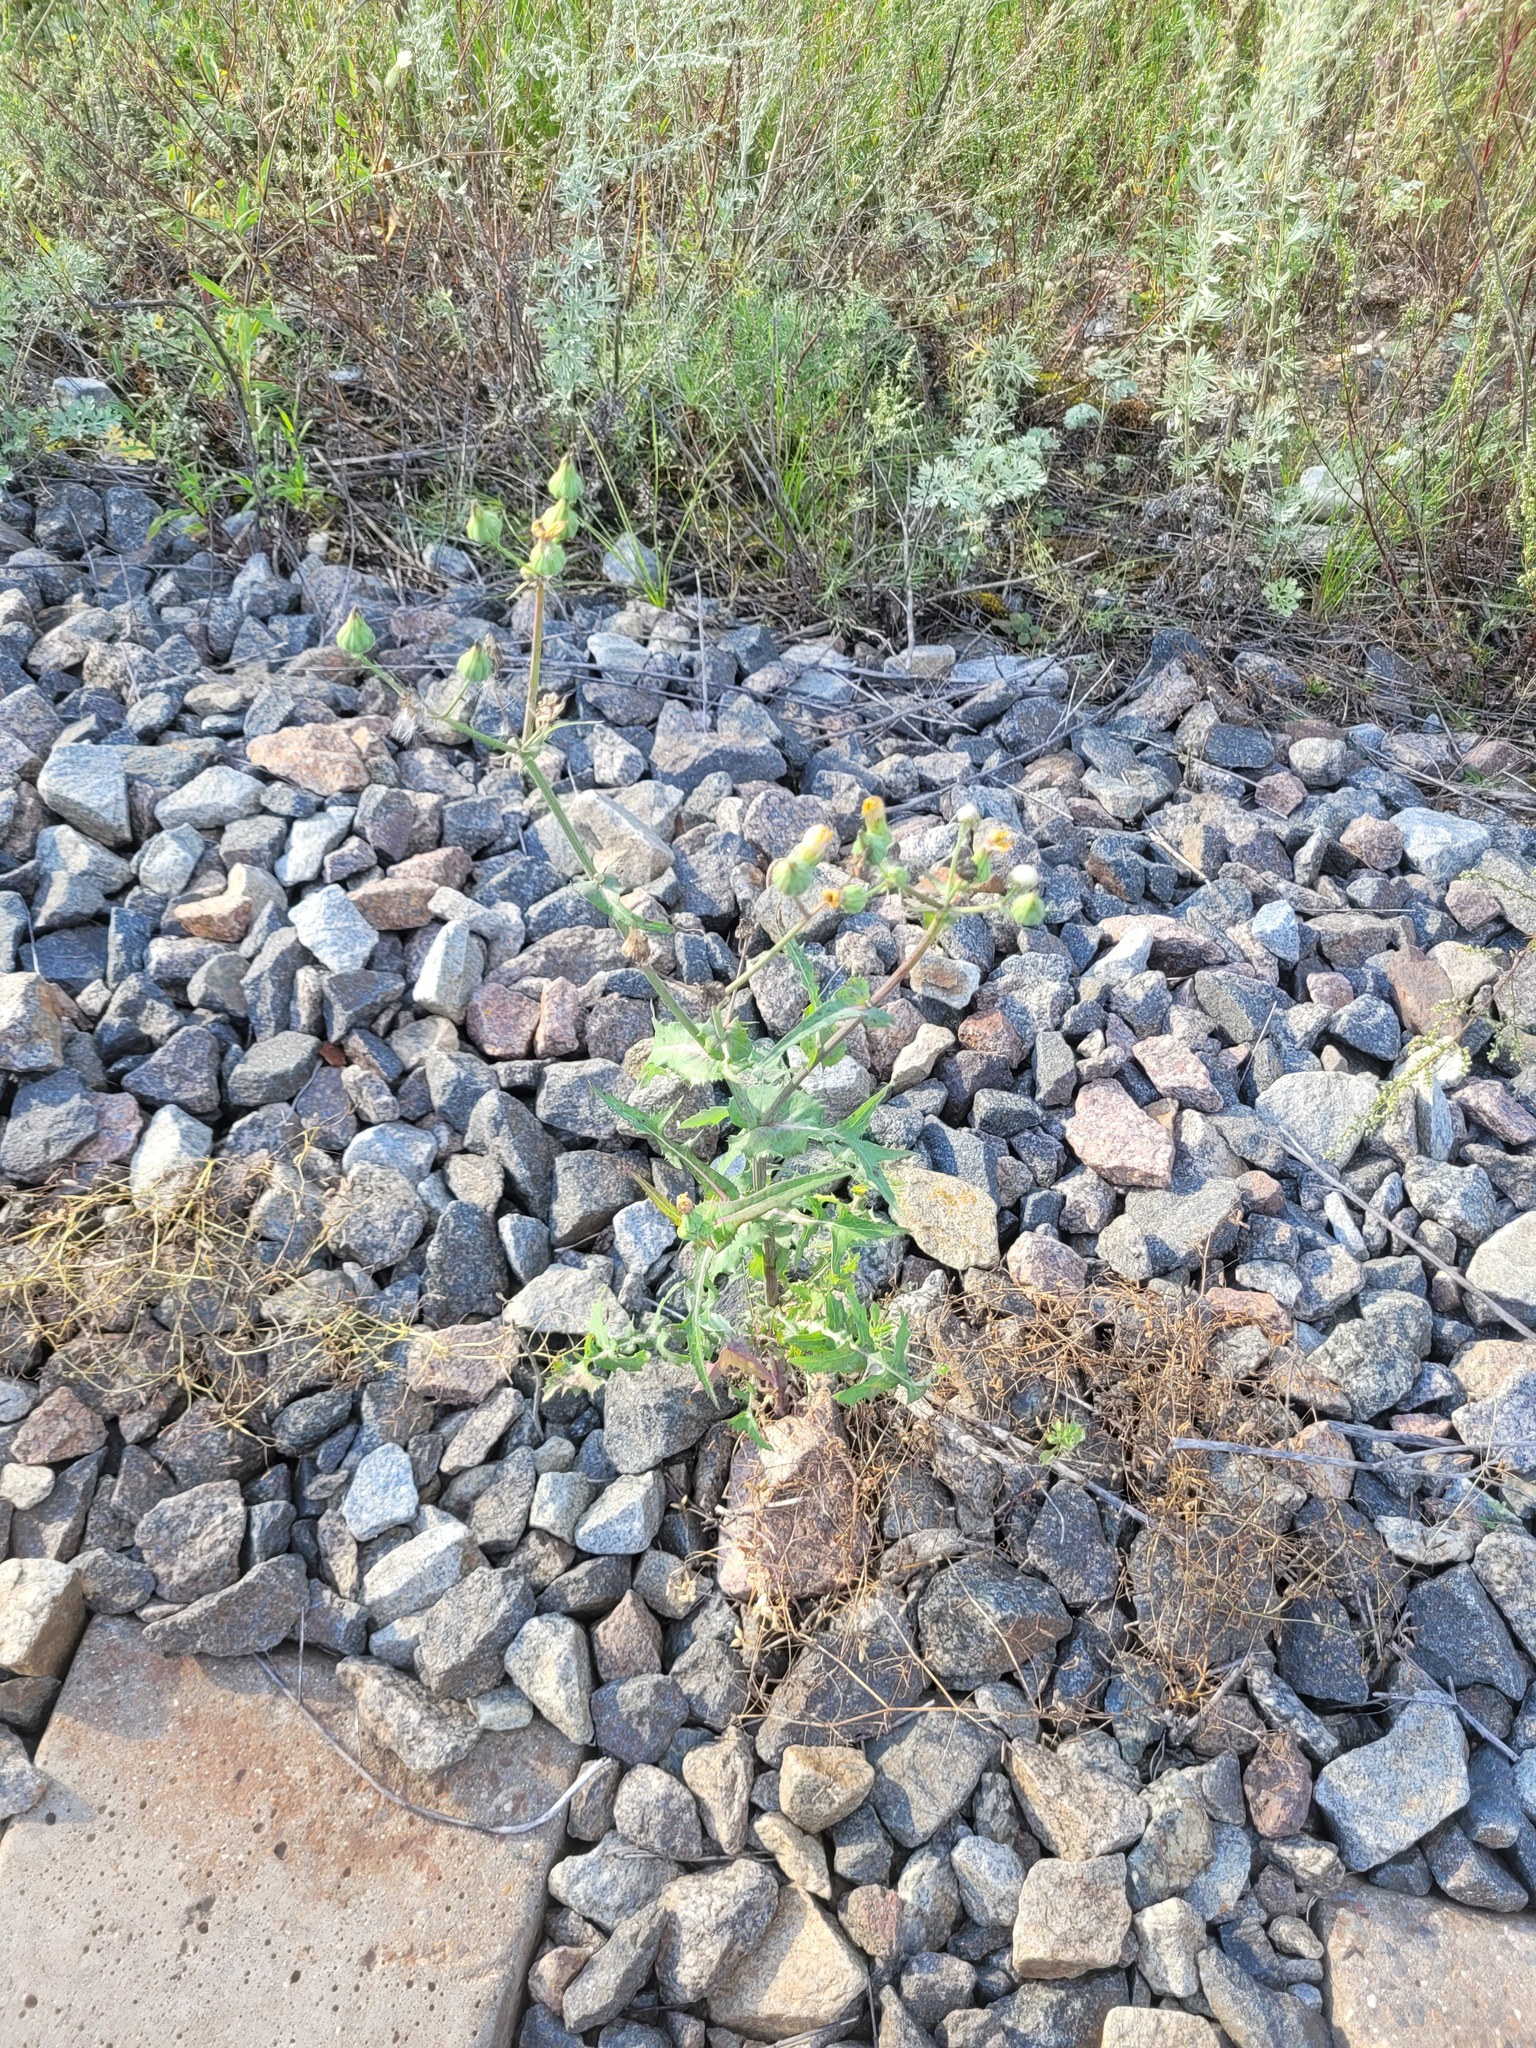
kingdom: Plantae
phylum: Tracheophyta
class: Magnoliopsida
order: Asterales
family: Asteraceae
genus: Sonchus
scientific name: Sonchus oleraceus
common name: Common sowthistle
